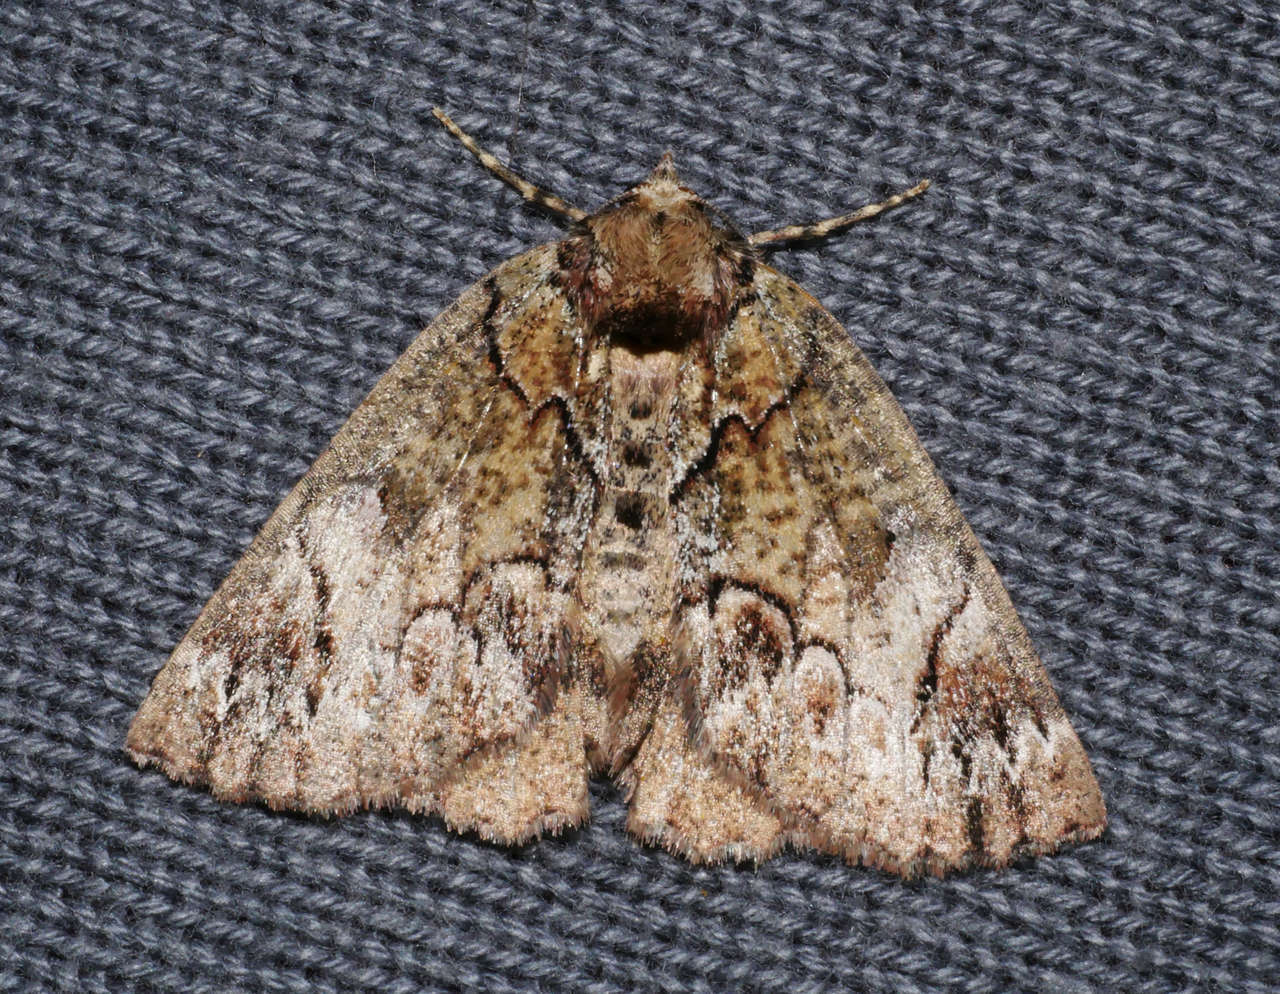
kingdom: Animalia
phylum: Arthropoda
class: Insecta
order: Lepidoptera
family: Geometridae
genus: Heliomystis
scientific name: Heliomystis electrica
